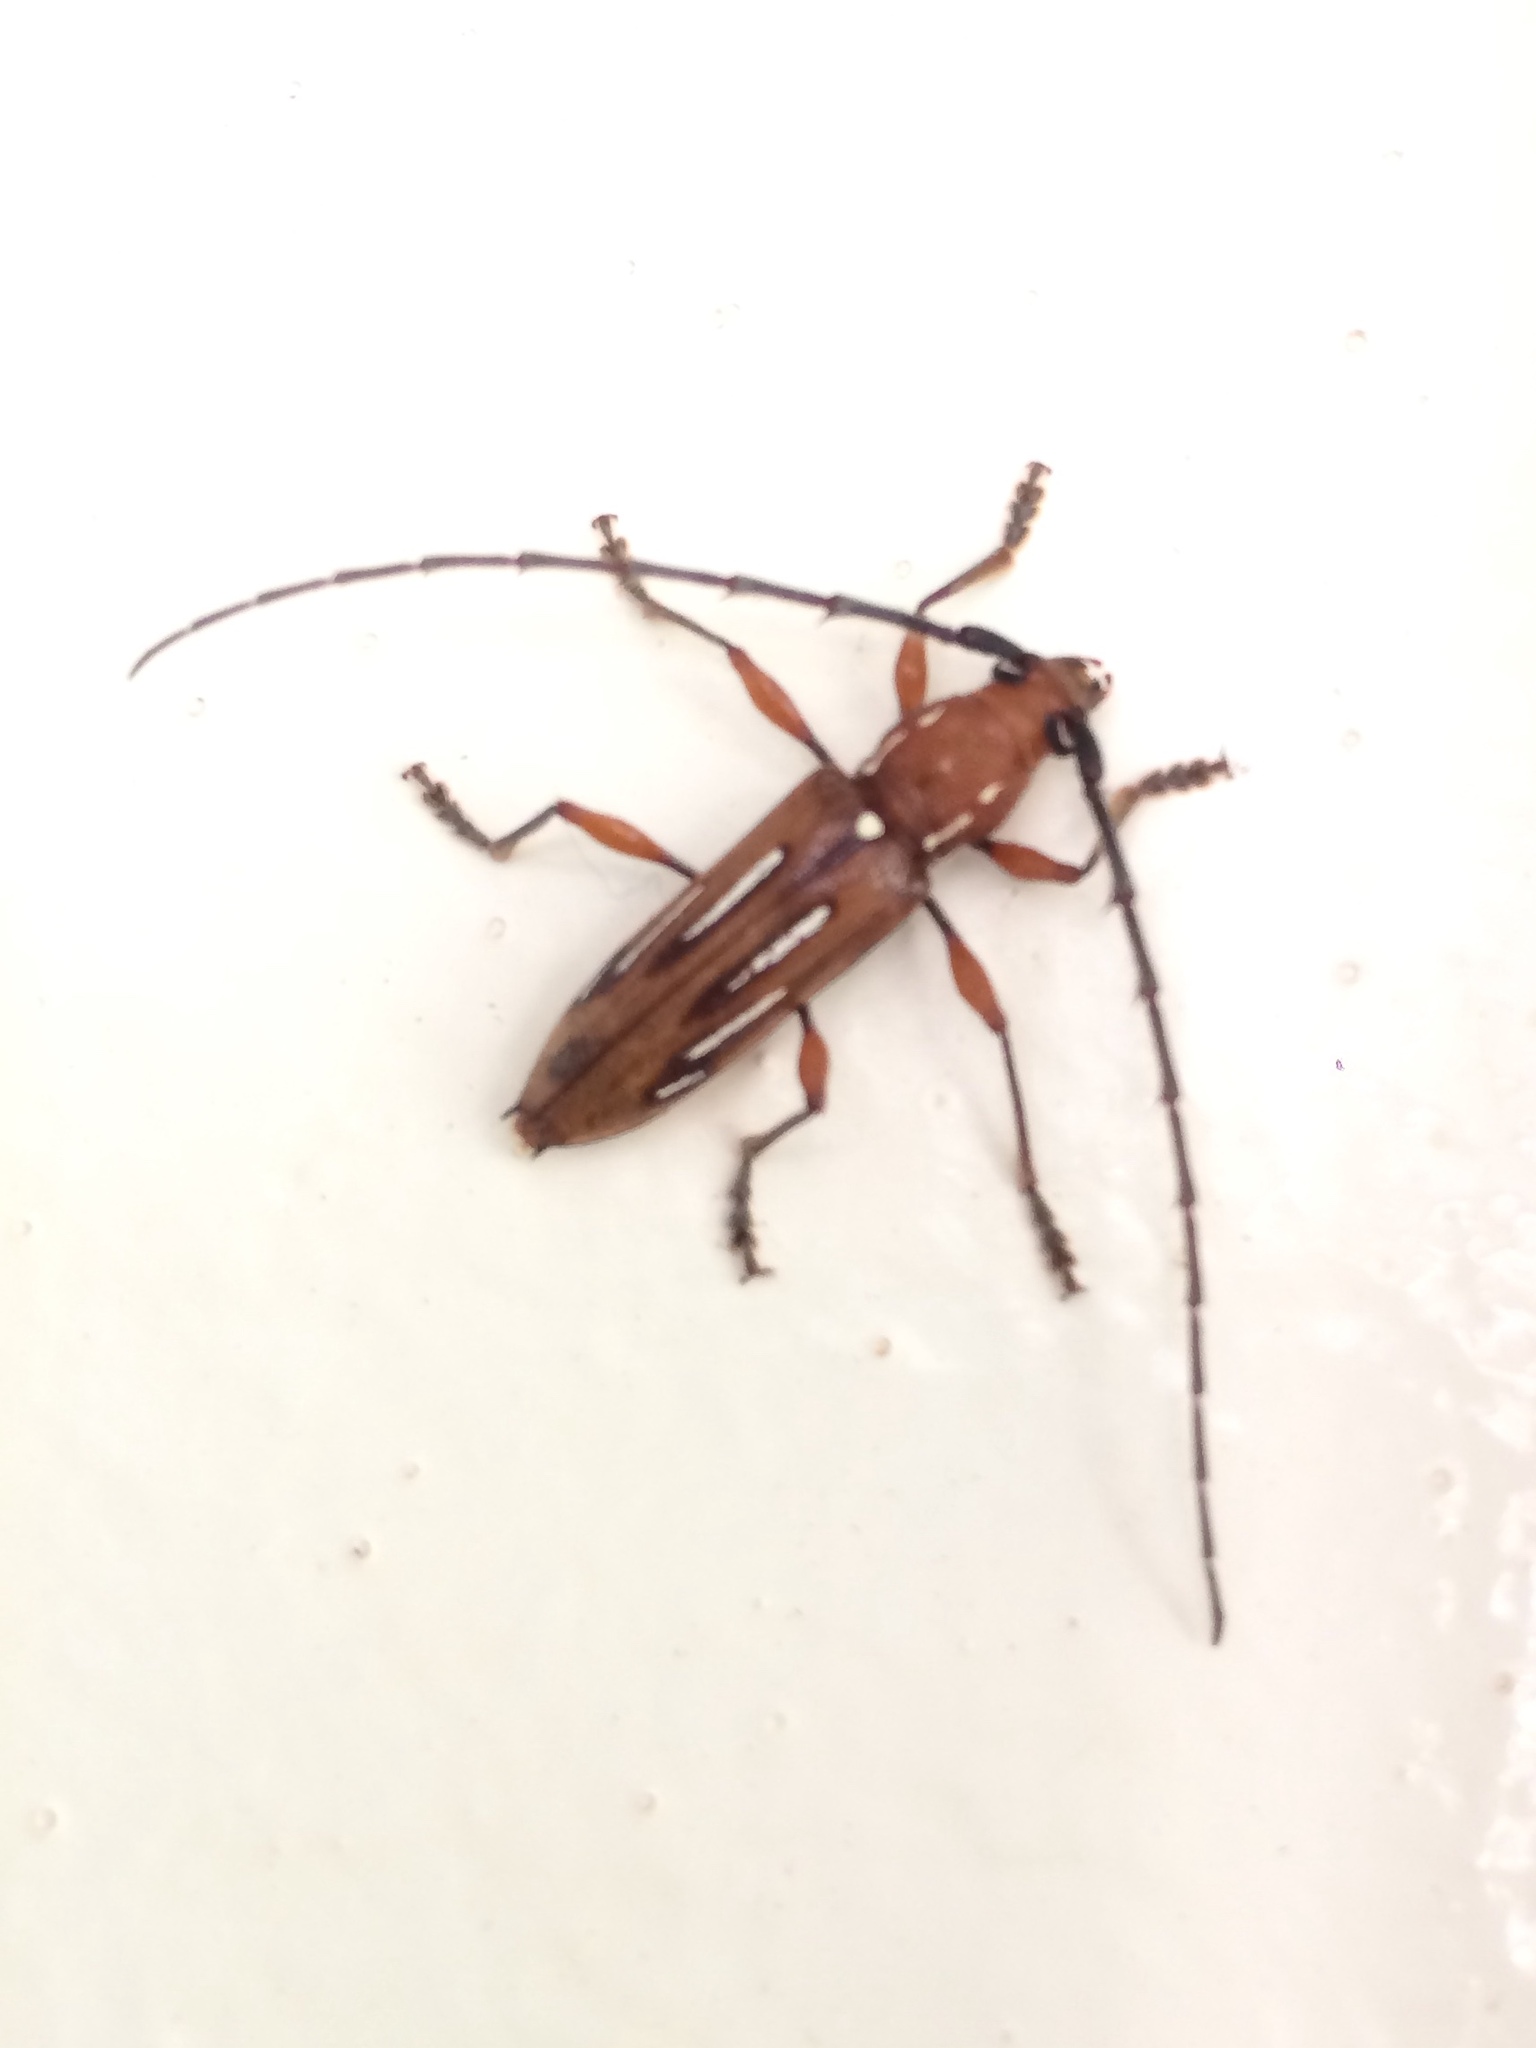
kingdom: Animalia
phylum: Arthropoda
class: Insecta
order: Coleoptera
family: Cerambycidae
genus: Ambonus
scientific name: Ambonus lippus
